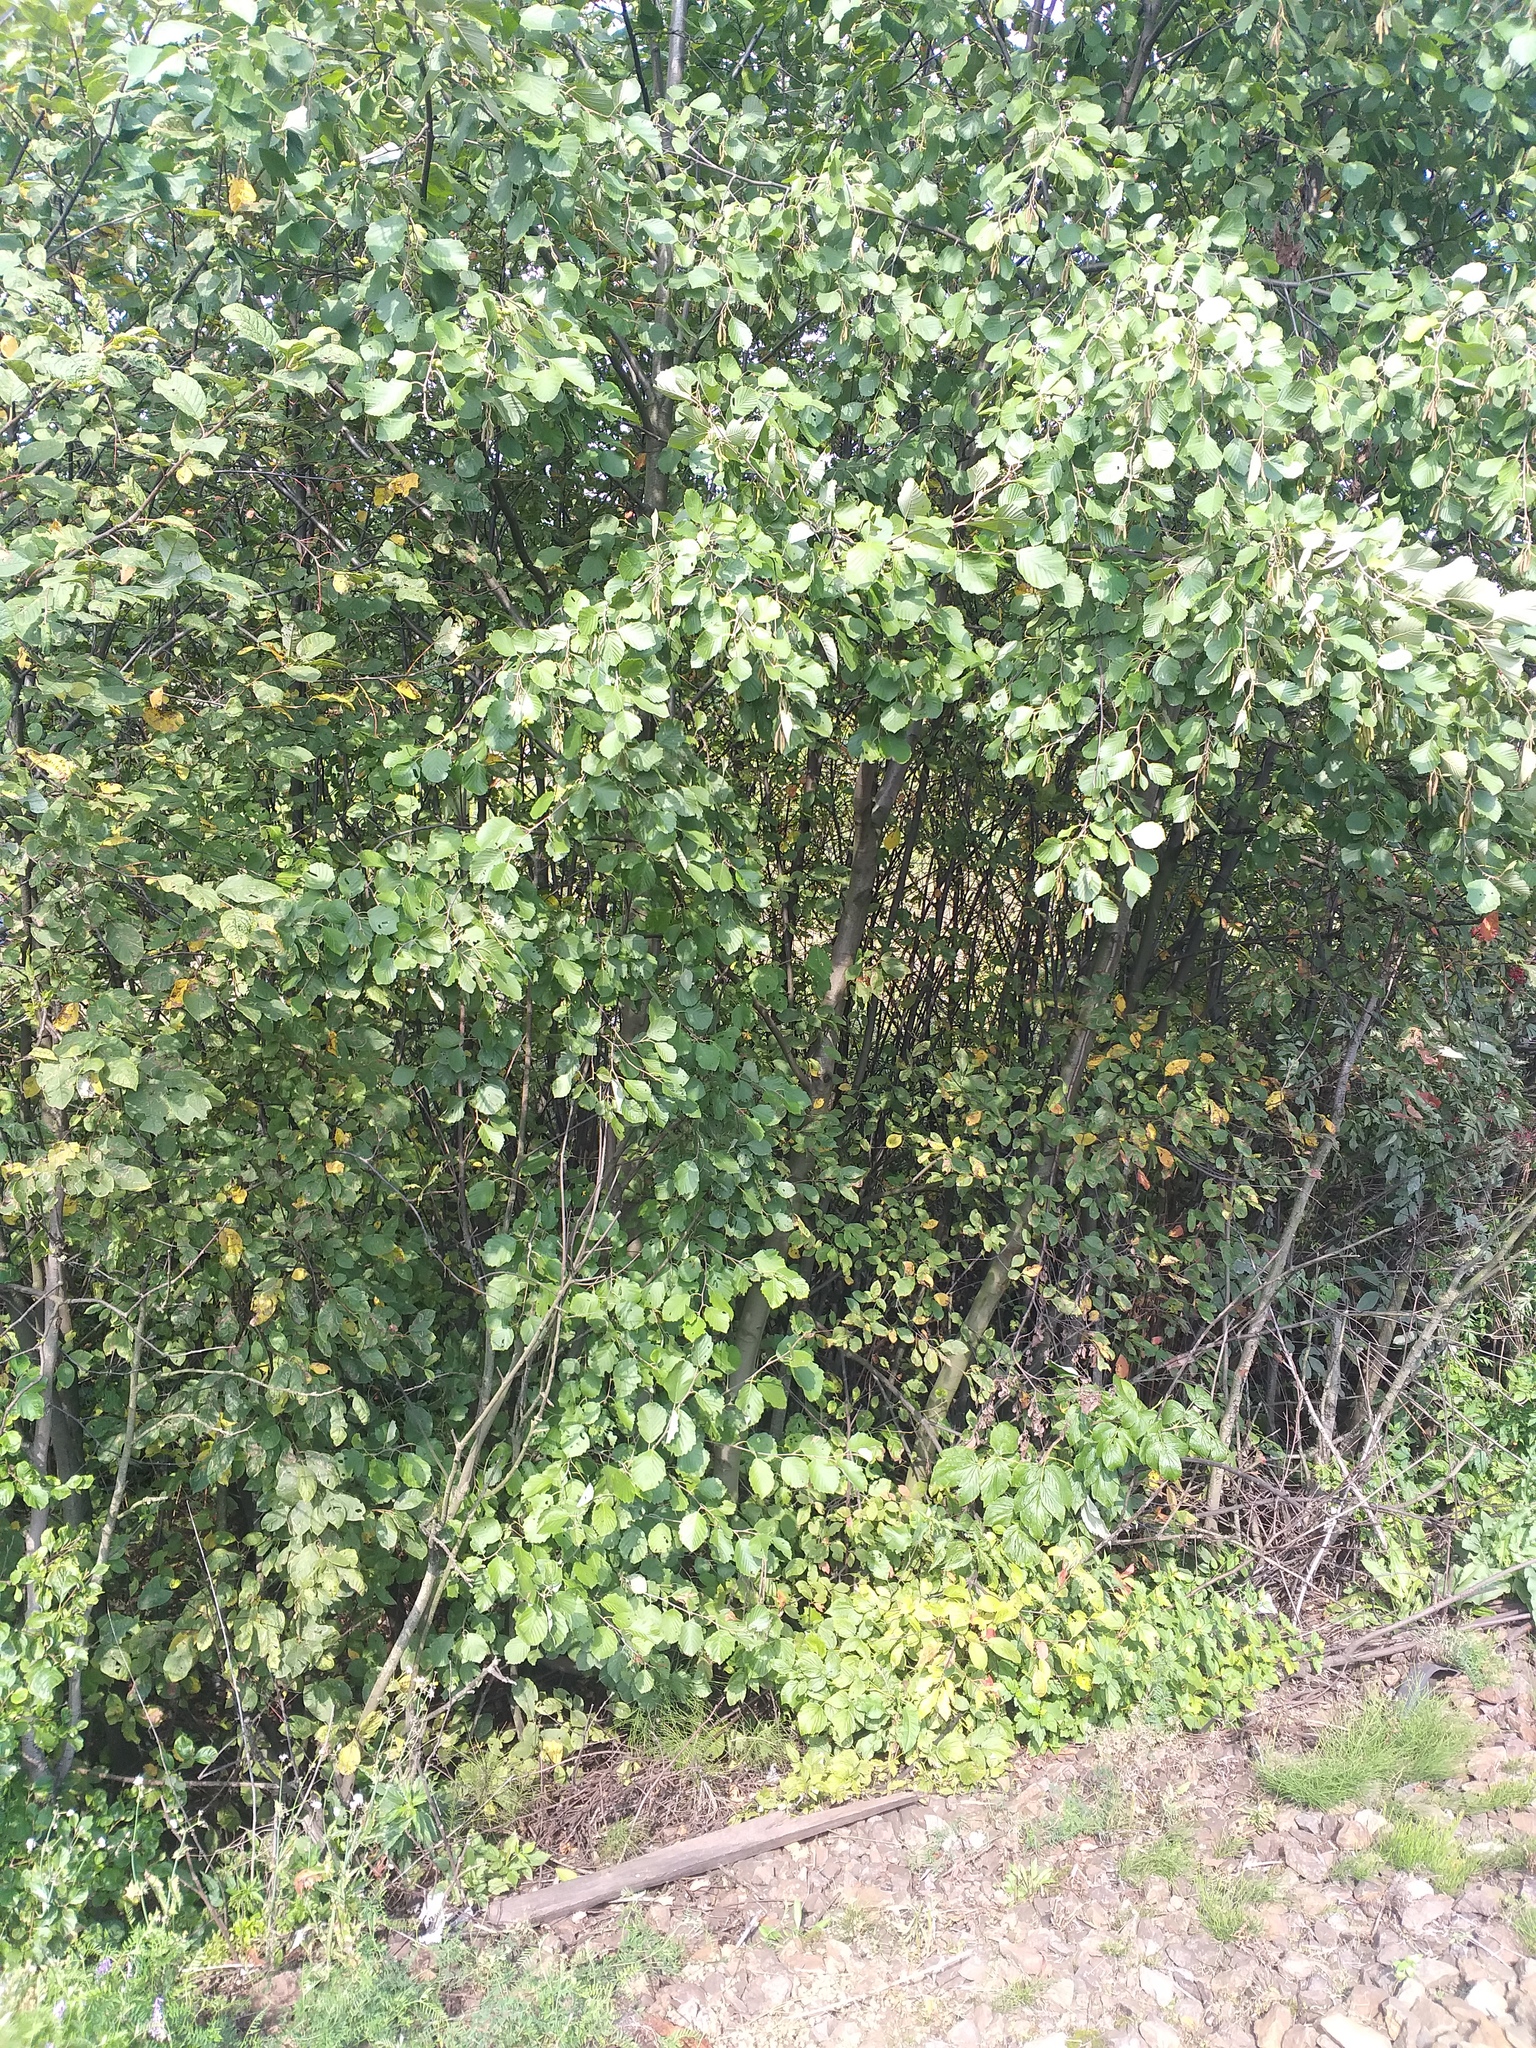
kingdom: Plantae
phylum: Tracheophyta
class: Magnoliopsida
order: Fagales
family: Betulaceae
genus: Alnus
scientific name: Alnus incana
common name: Grey alder
